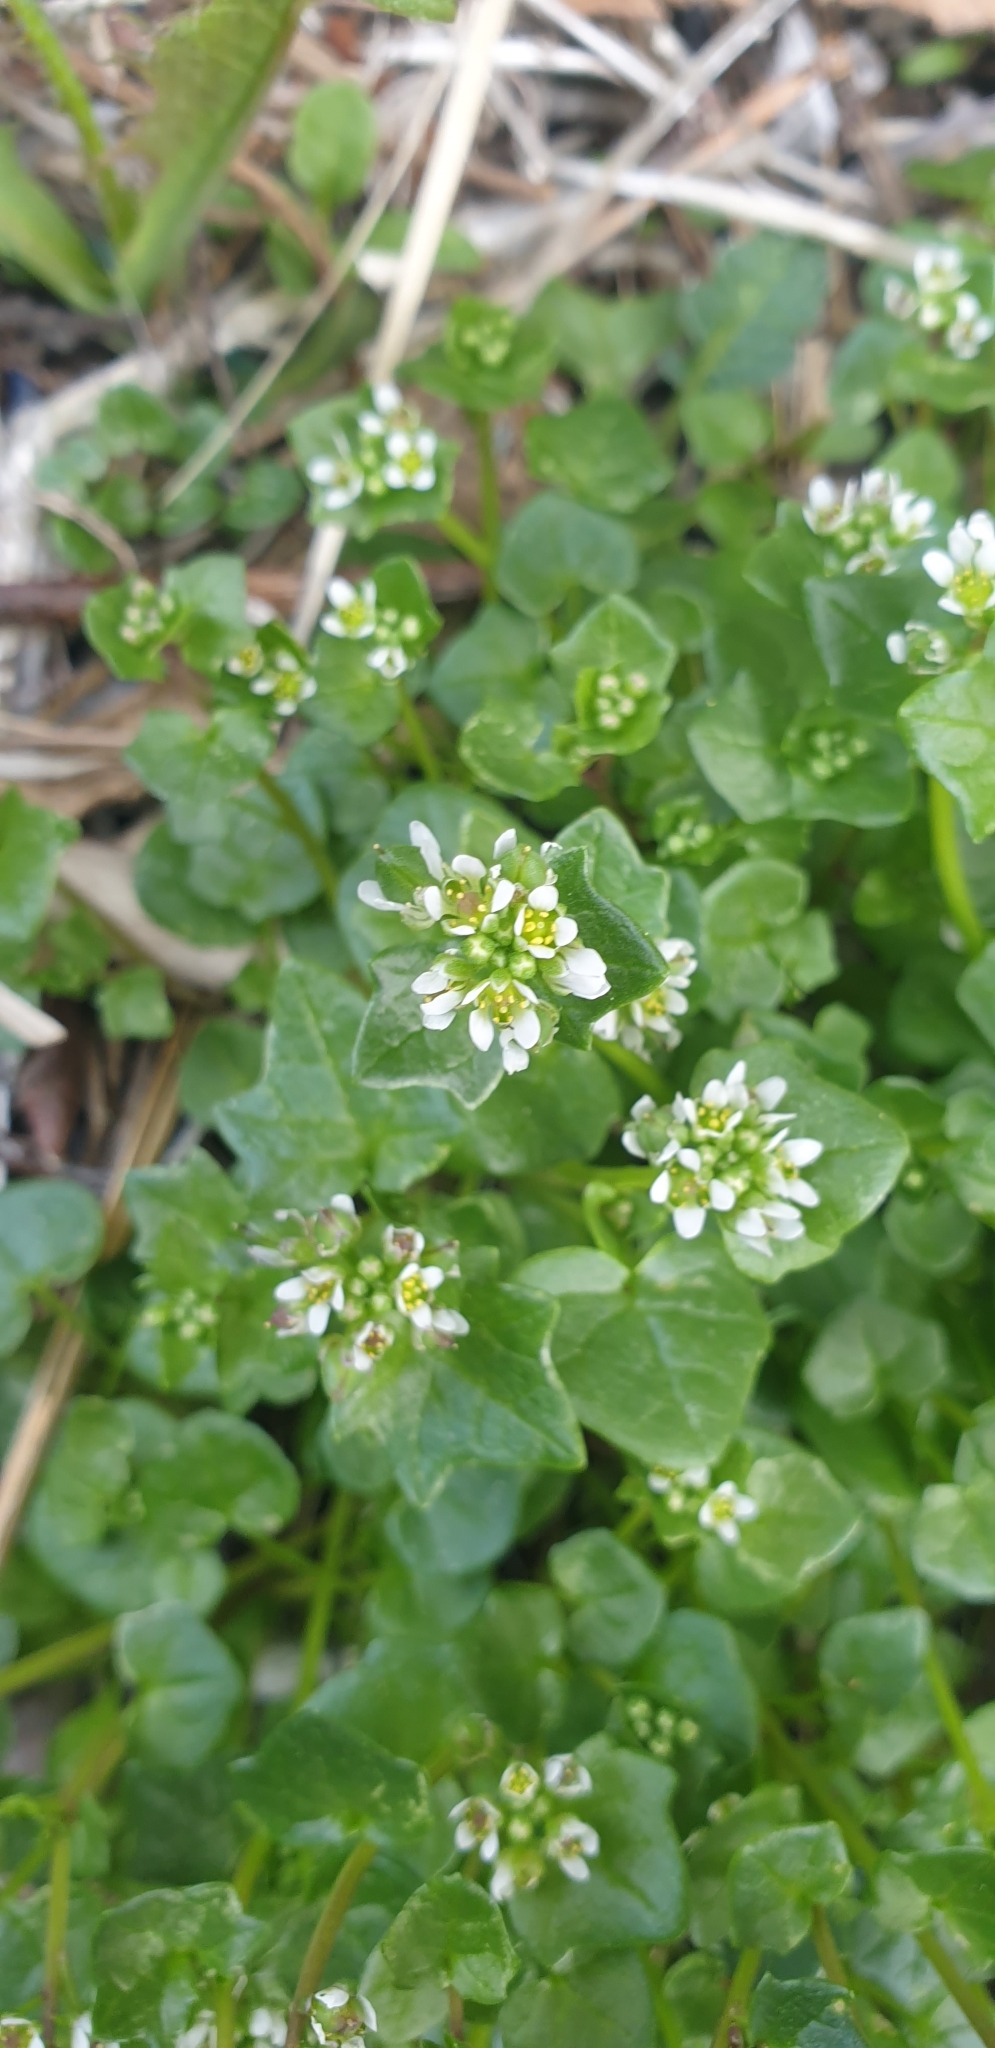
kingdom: Plantae
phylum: Tracheophyta
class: Magnoliopsida
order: Brassicales
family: Brassicaceae
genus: Cochlearia
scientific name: Cochlearia danica
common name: Early scurvygrass
